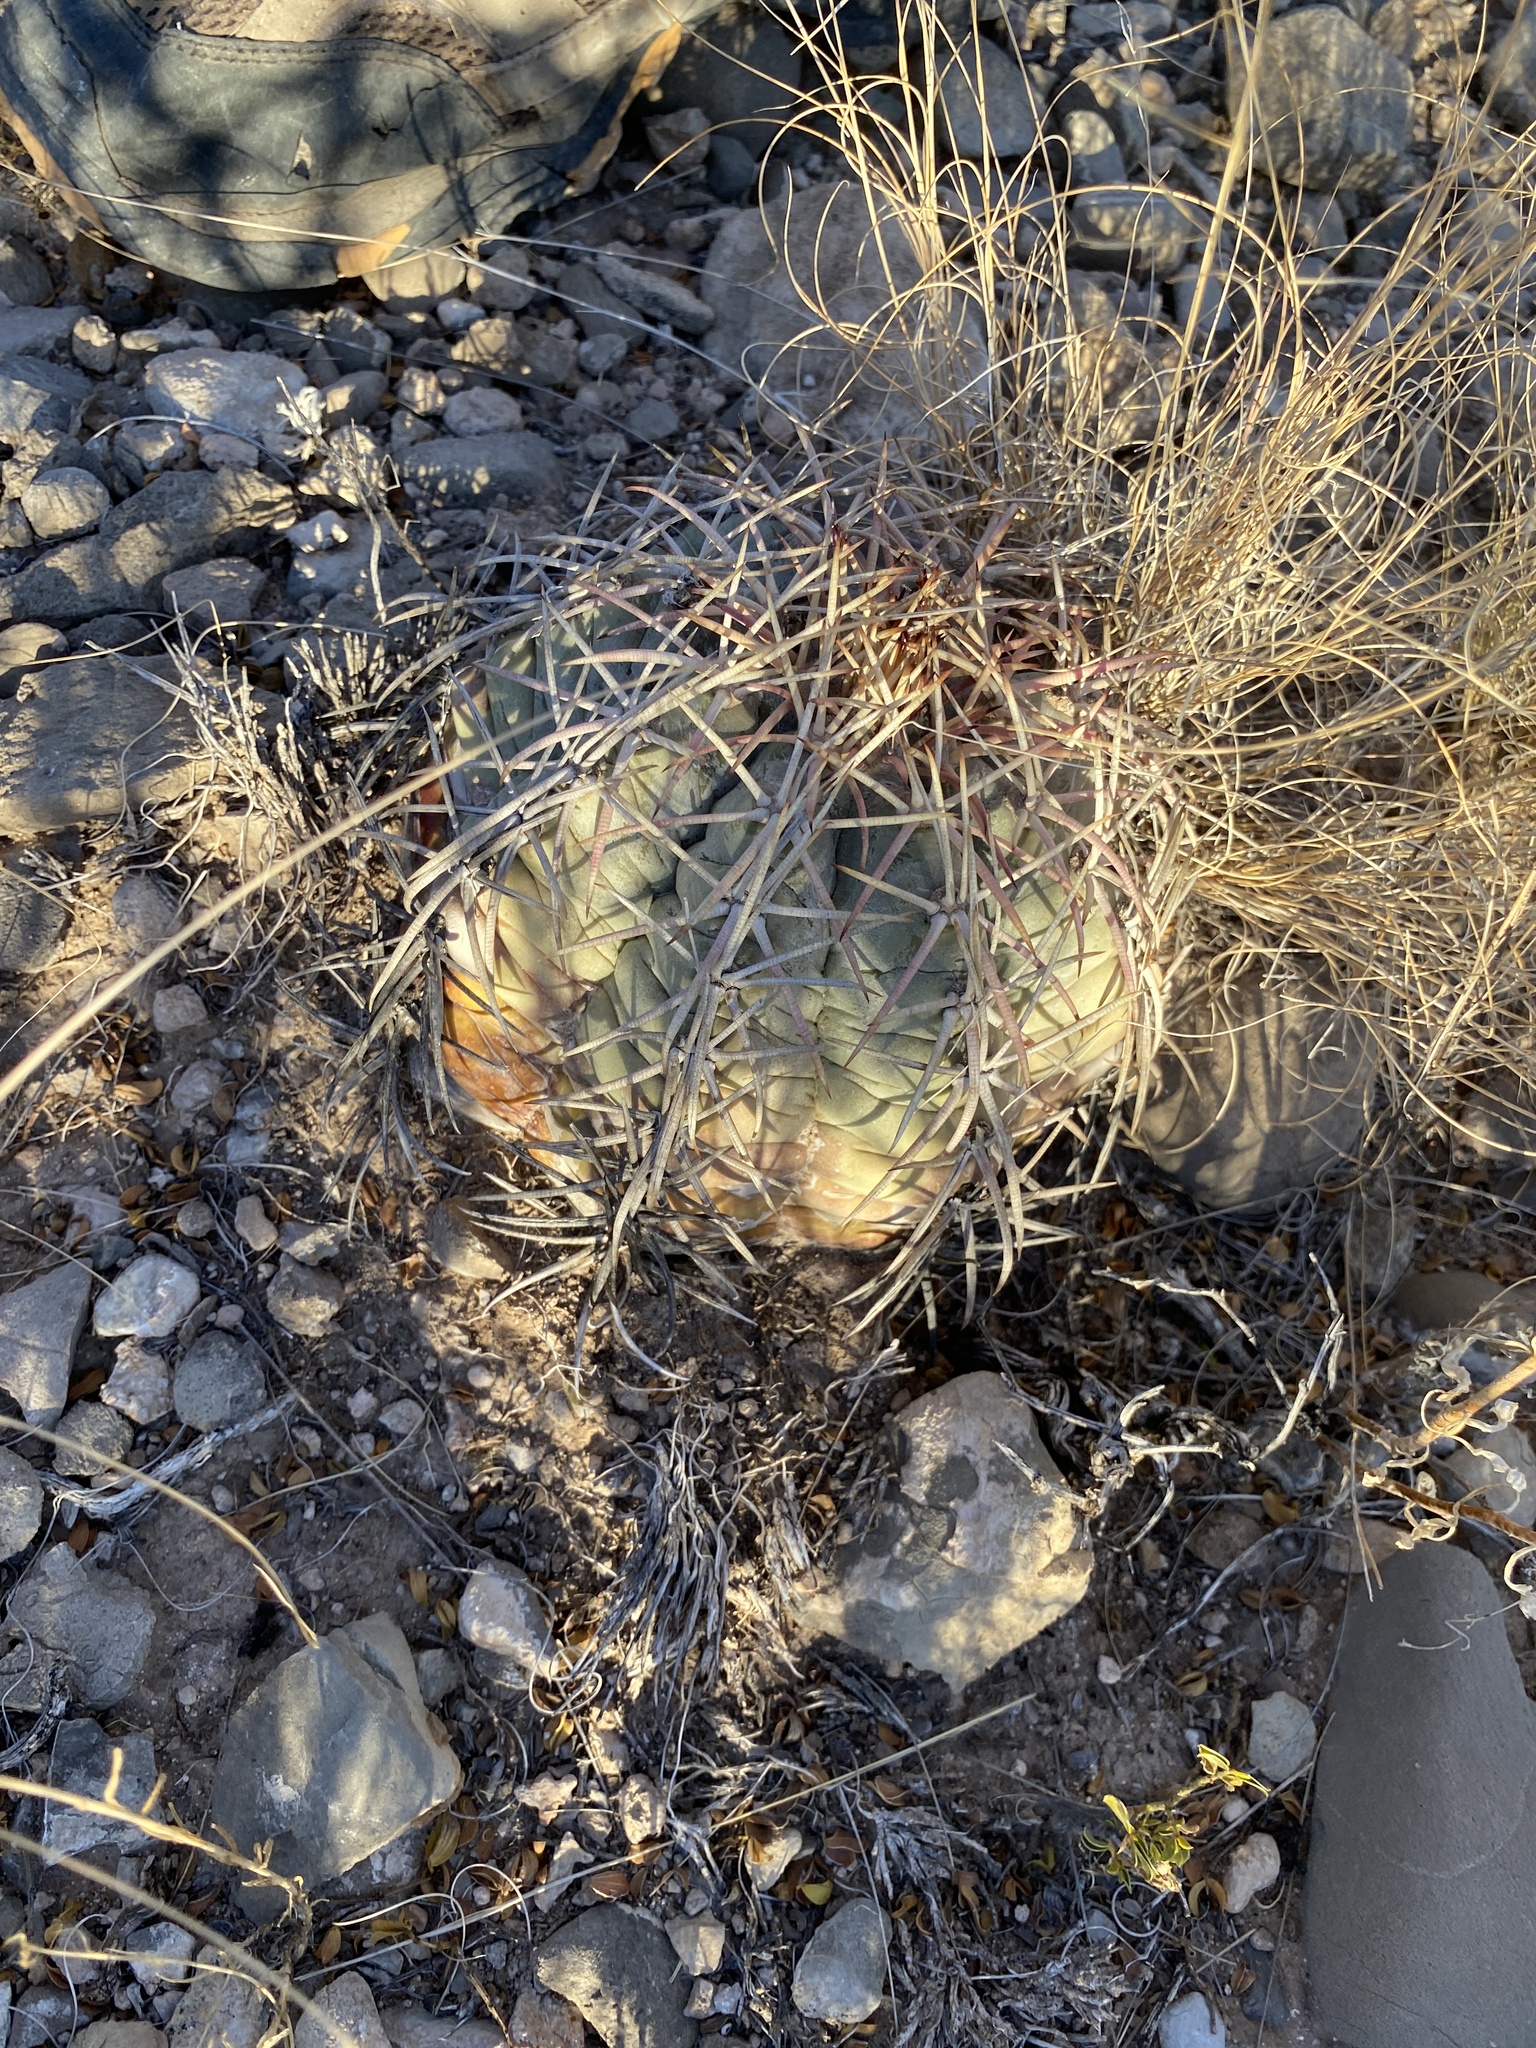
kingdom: Plantae
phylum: Tracheophyta
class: Magnoliopsida
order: Caryophyllales
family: Cactaceae
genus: Echinocactus
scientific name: Echinocactus horizonthalonius
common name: Devilshead
